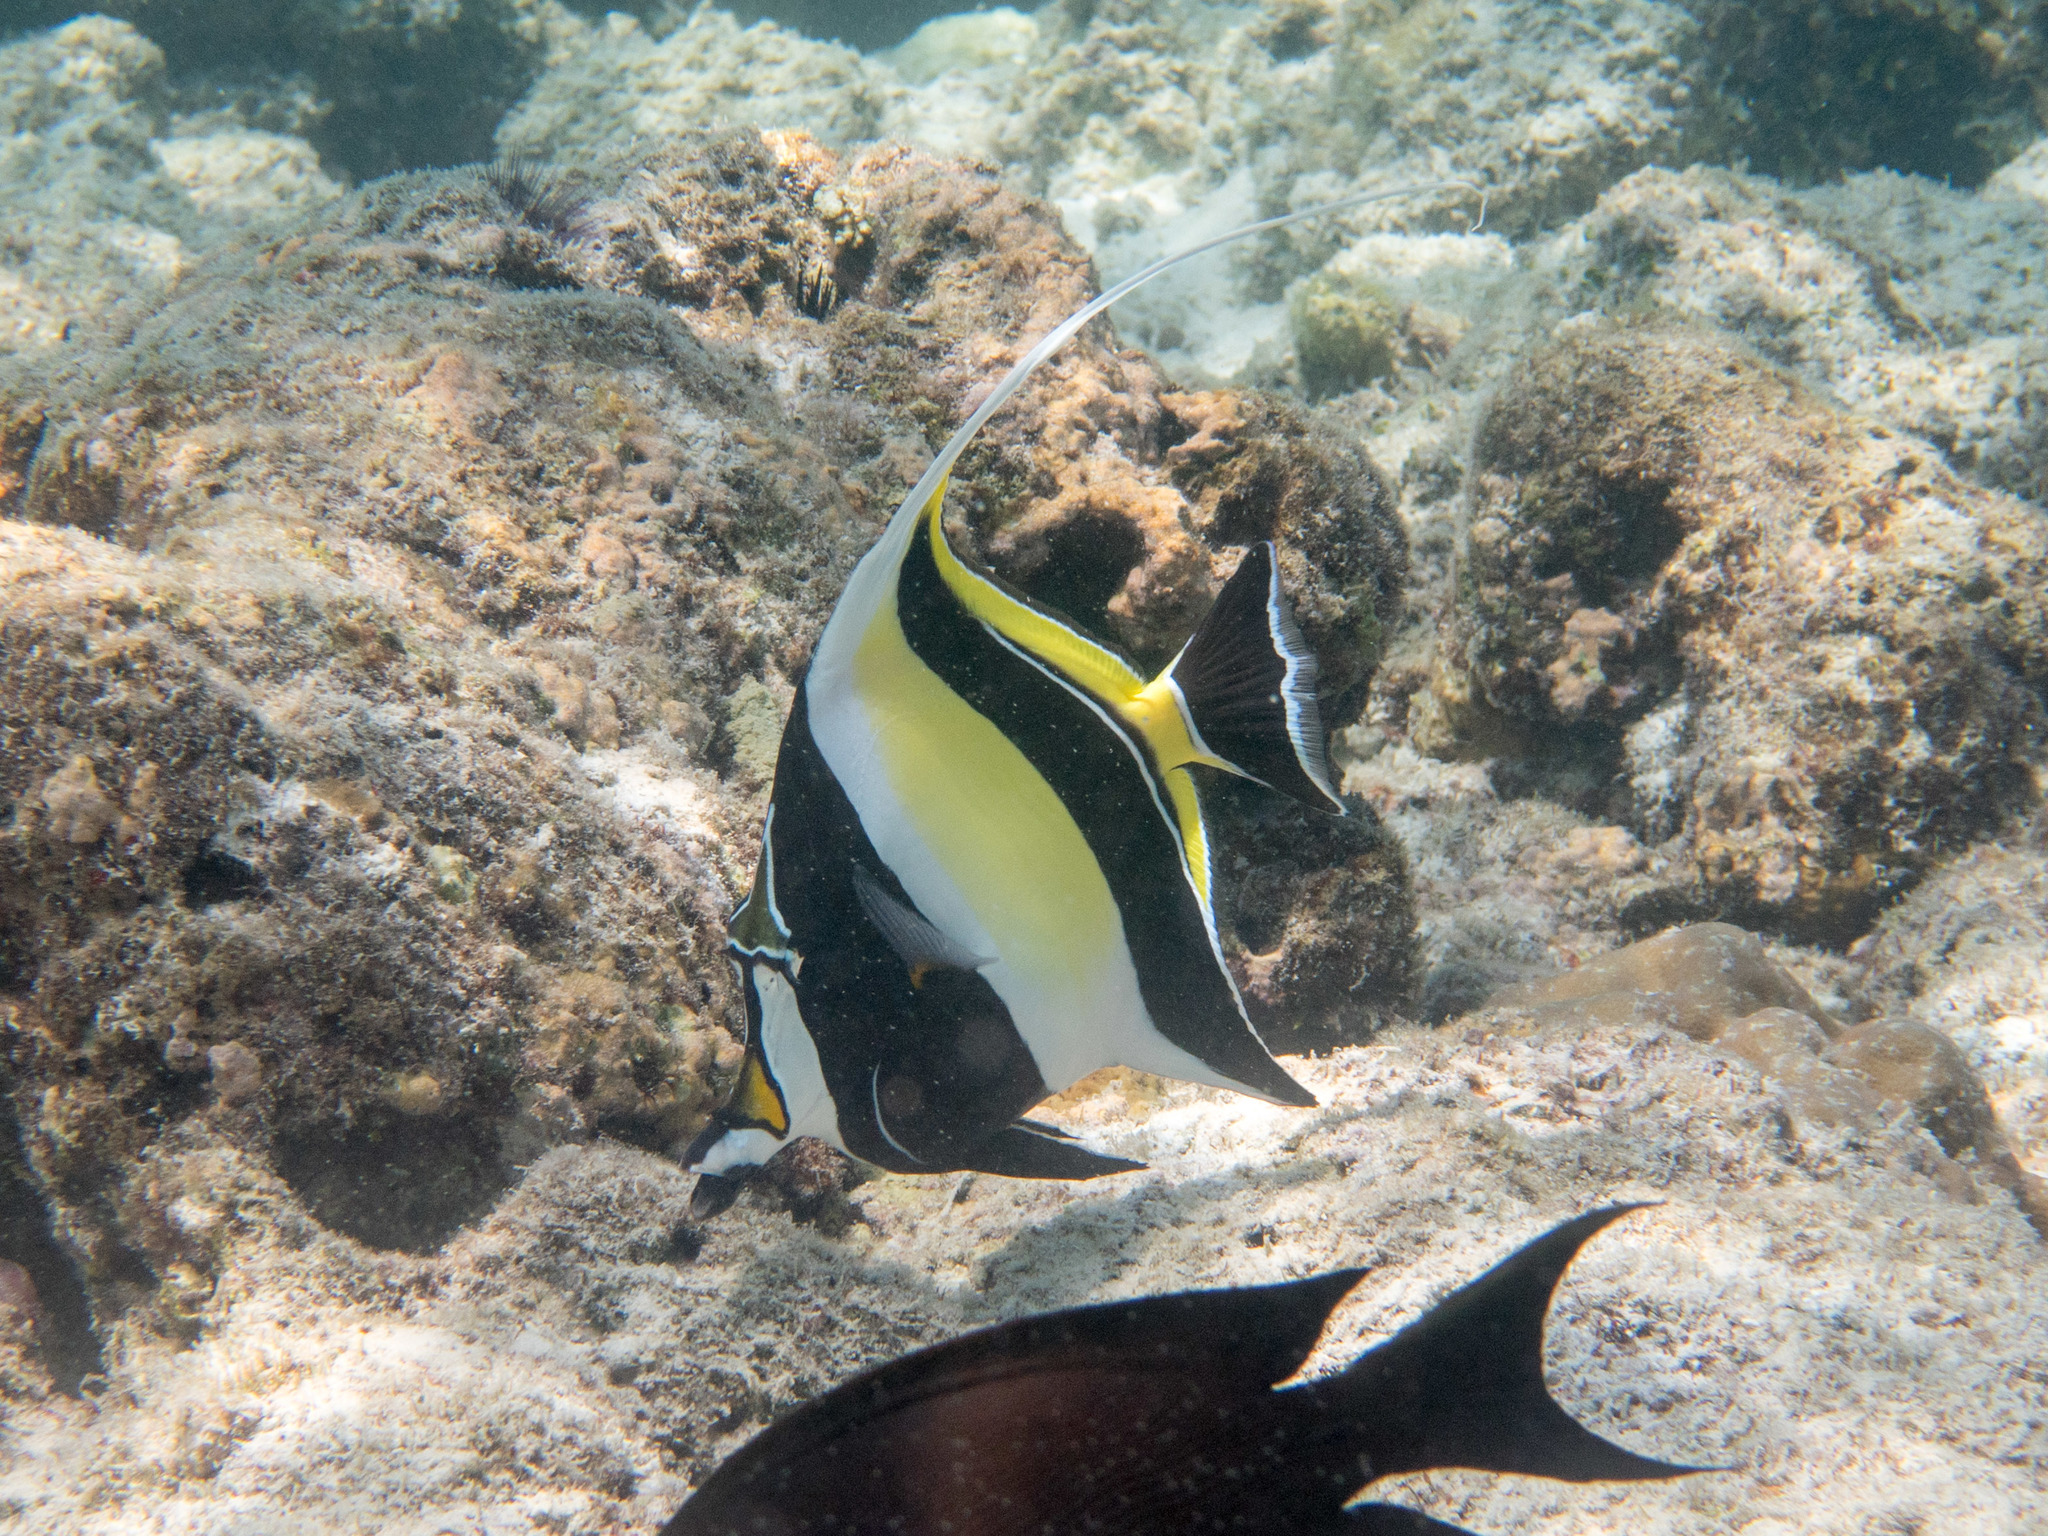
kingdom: Animalia
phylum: Chordata
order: Perciformes
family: Zanclidae
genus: Zanclus
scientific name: Zanclus cornutus
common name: Moorish idol
